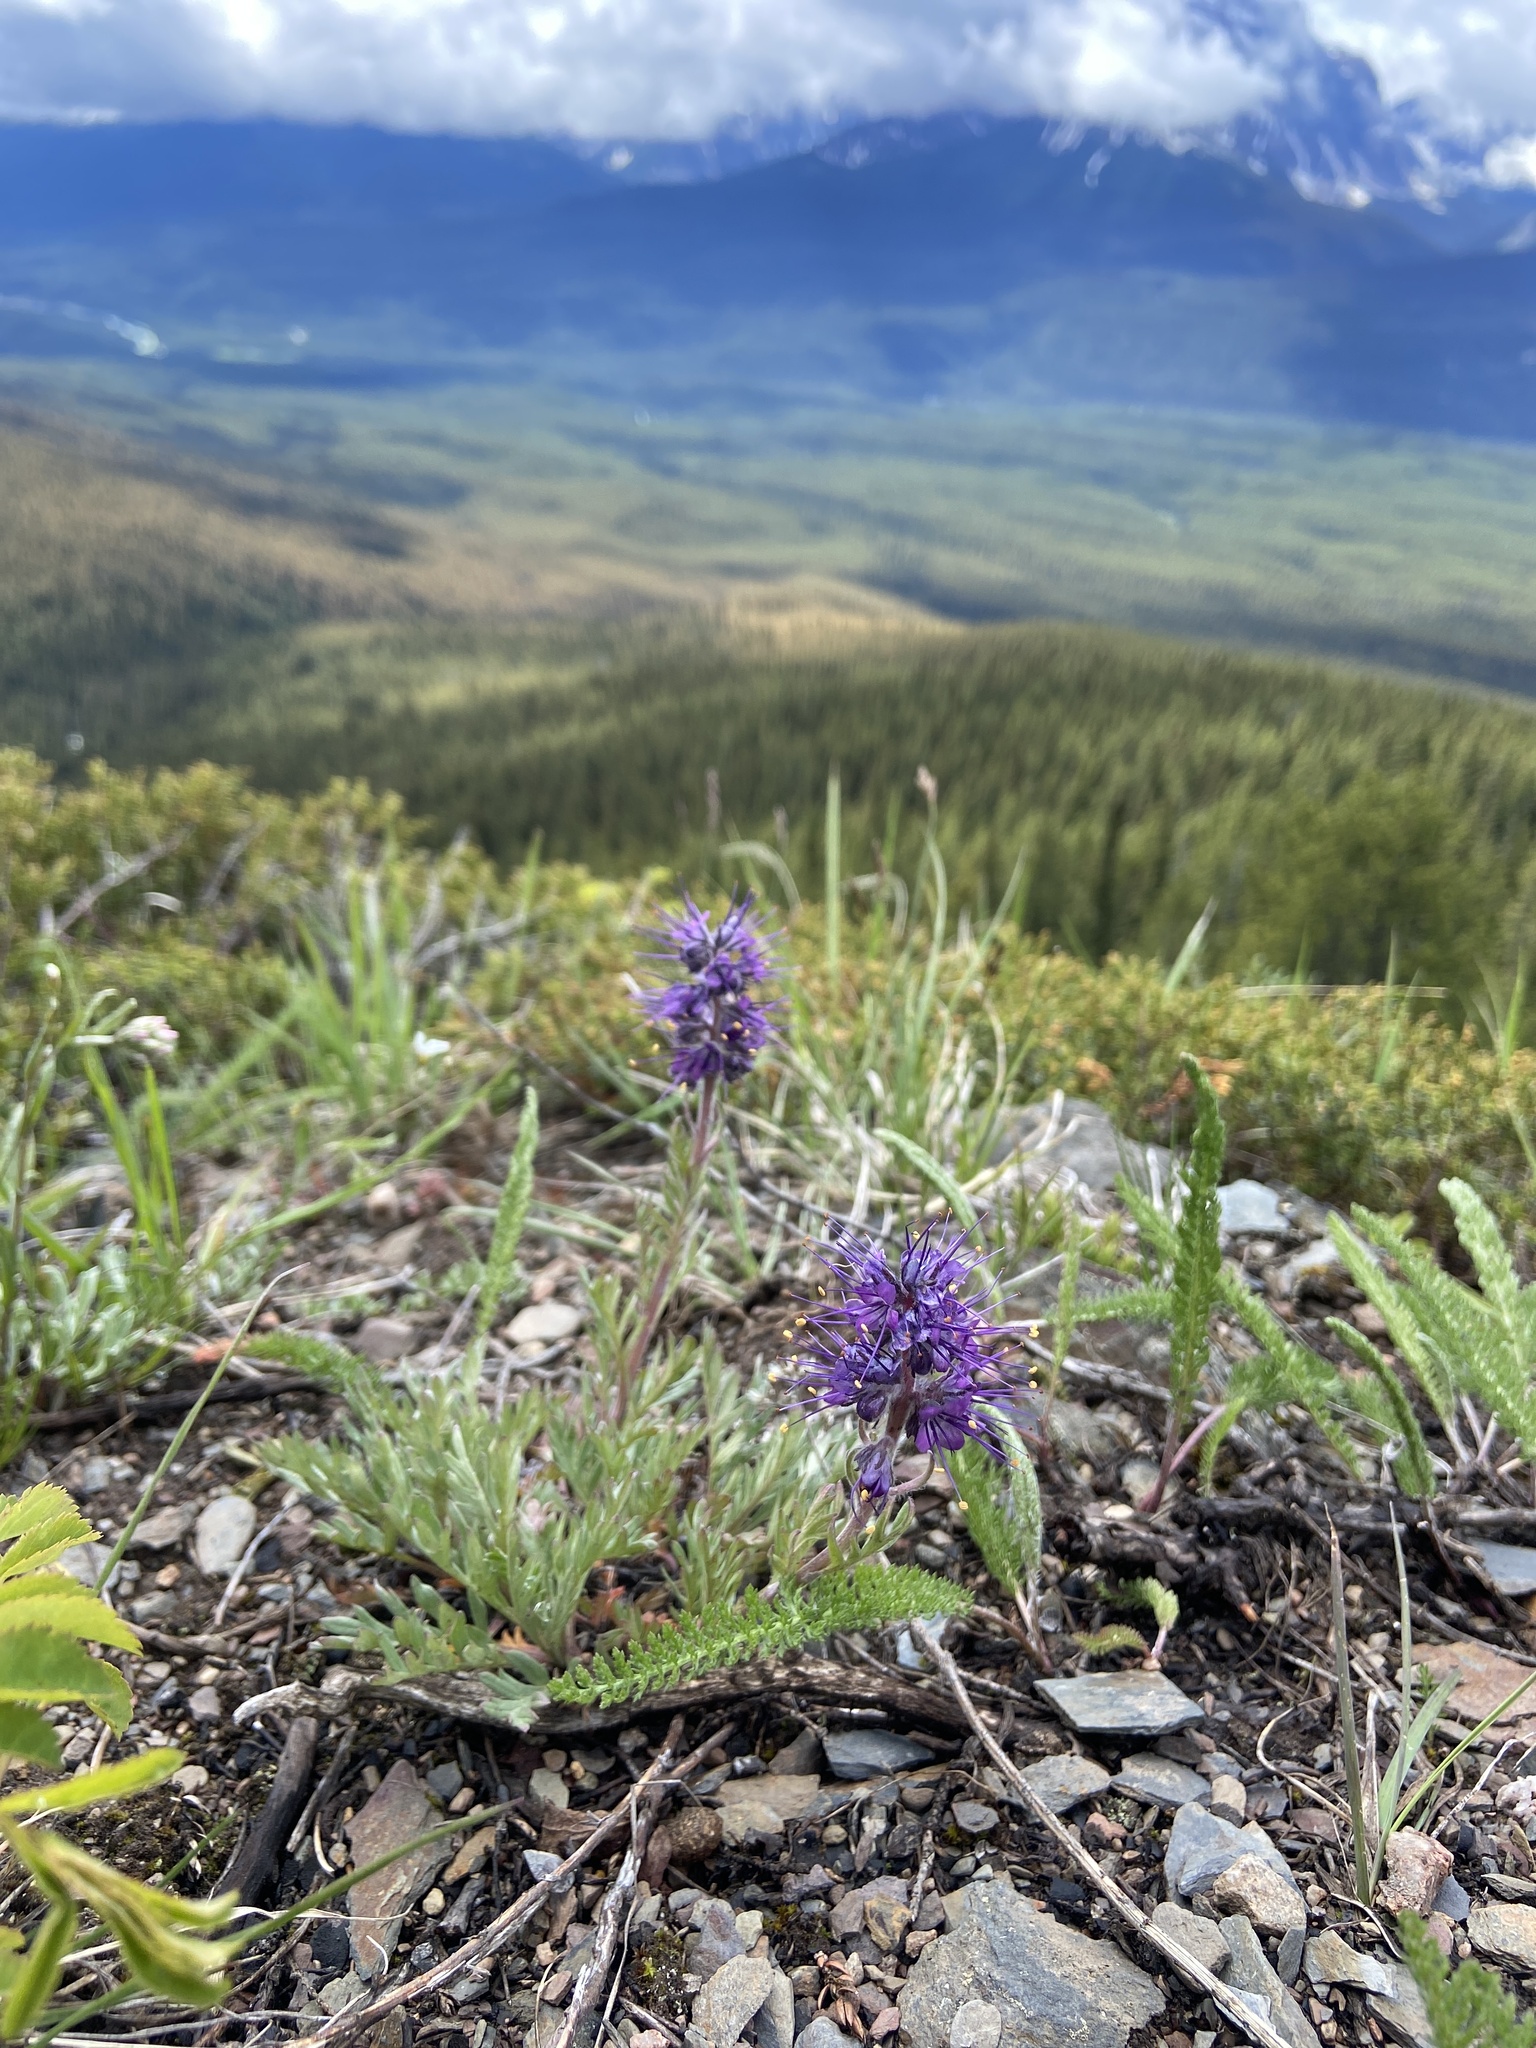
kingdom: Plantae
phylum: Tracheophyta
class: Magnoliopsida
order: Boraginales
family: Hydrophyllaceae
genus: Phacelia
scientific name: Phacelia sericea
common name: Silky phacelia
